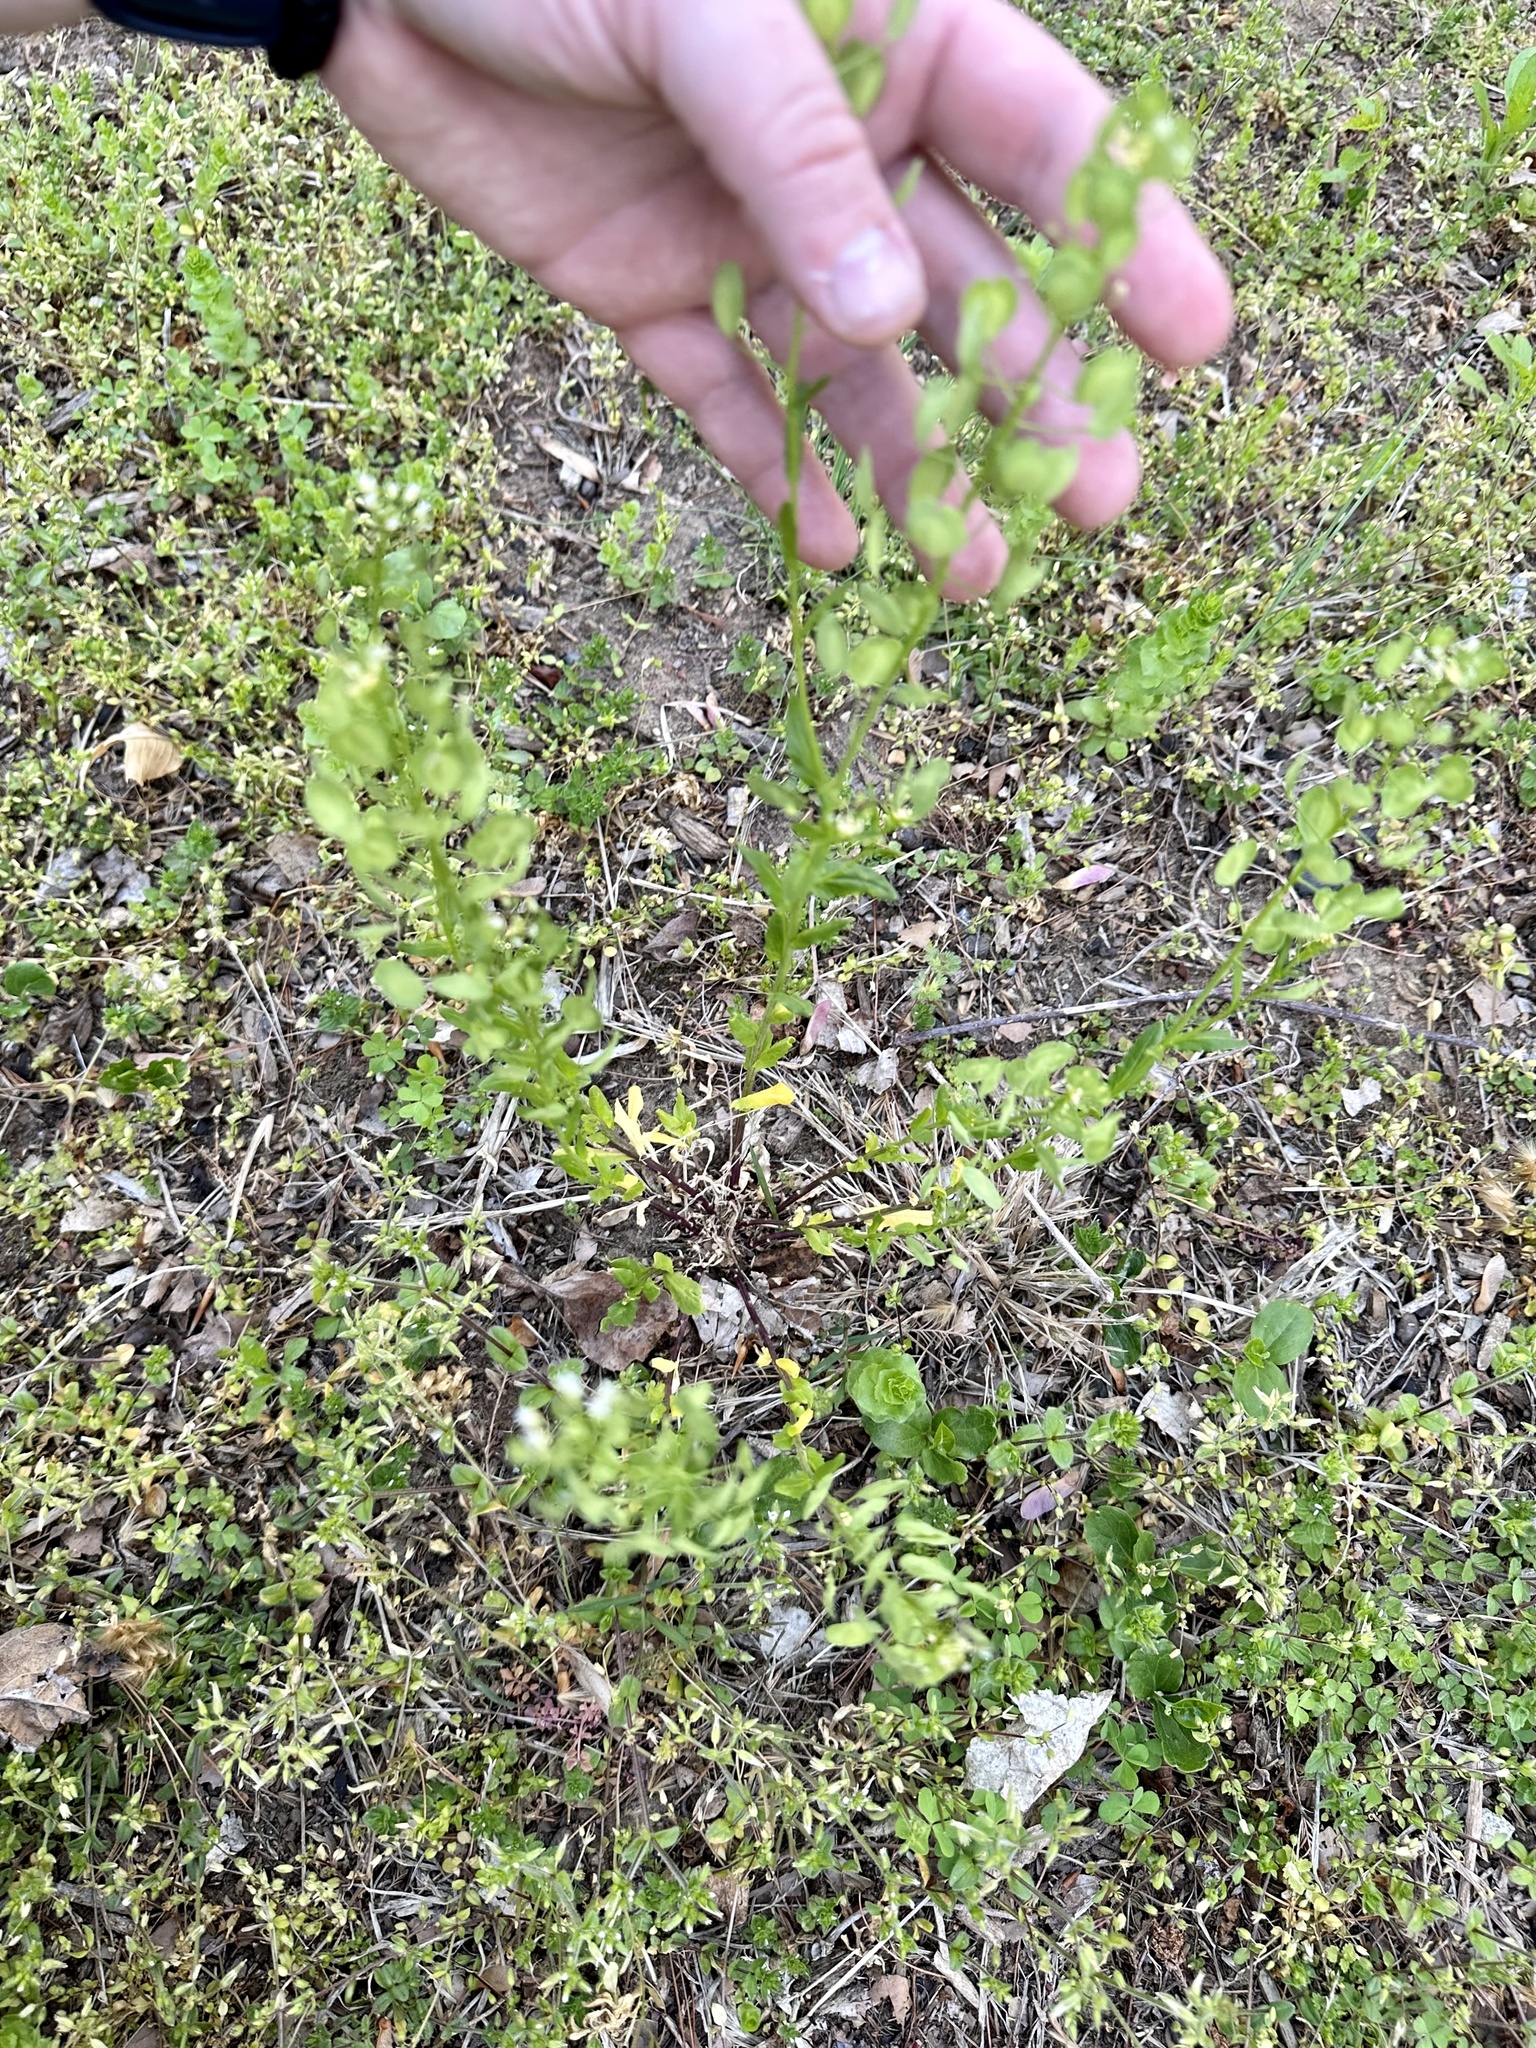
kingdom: Plantae
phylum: Tracheophyta
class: Magnoliopsida
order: Brassicales
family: Brassicaceae
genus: Thlaspi
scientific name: Thlaspi arvense
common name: Field pennycress
